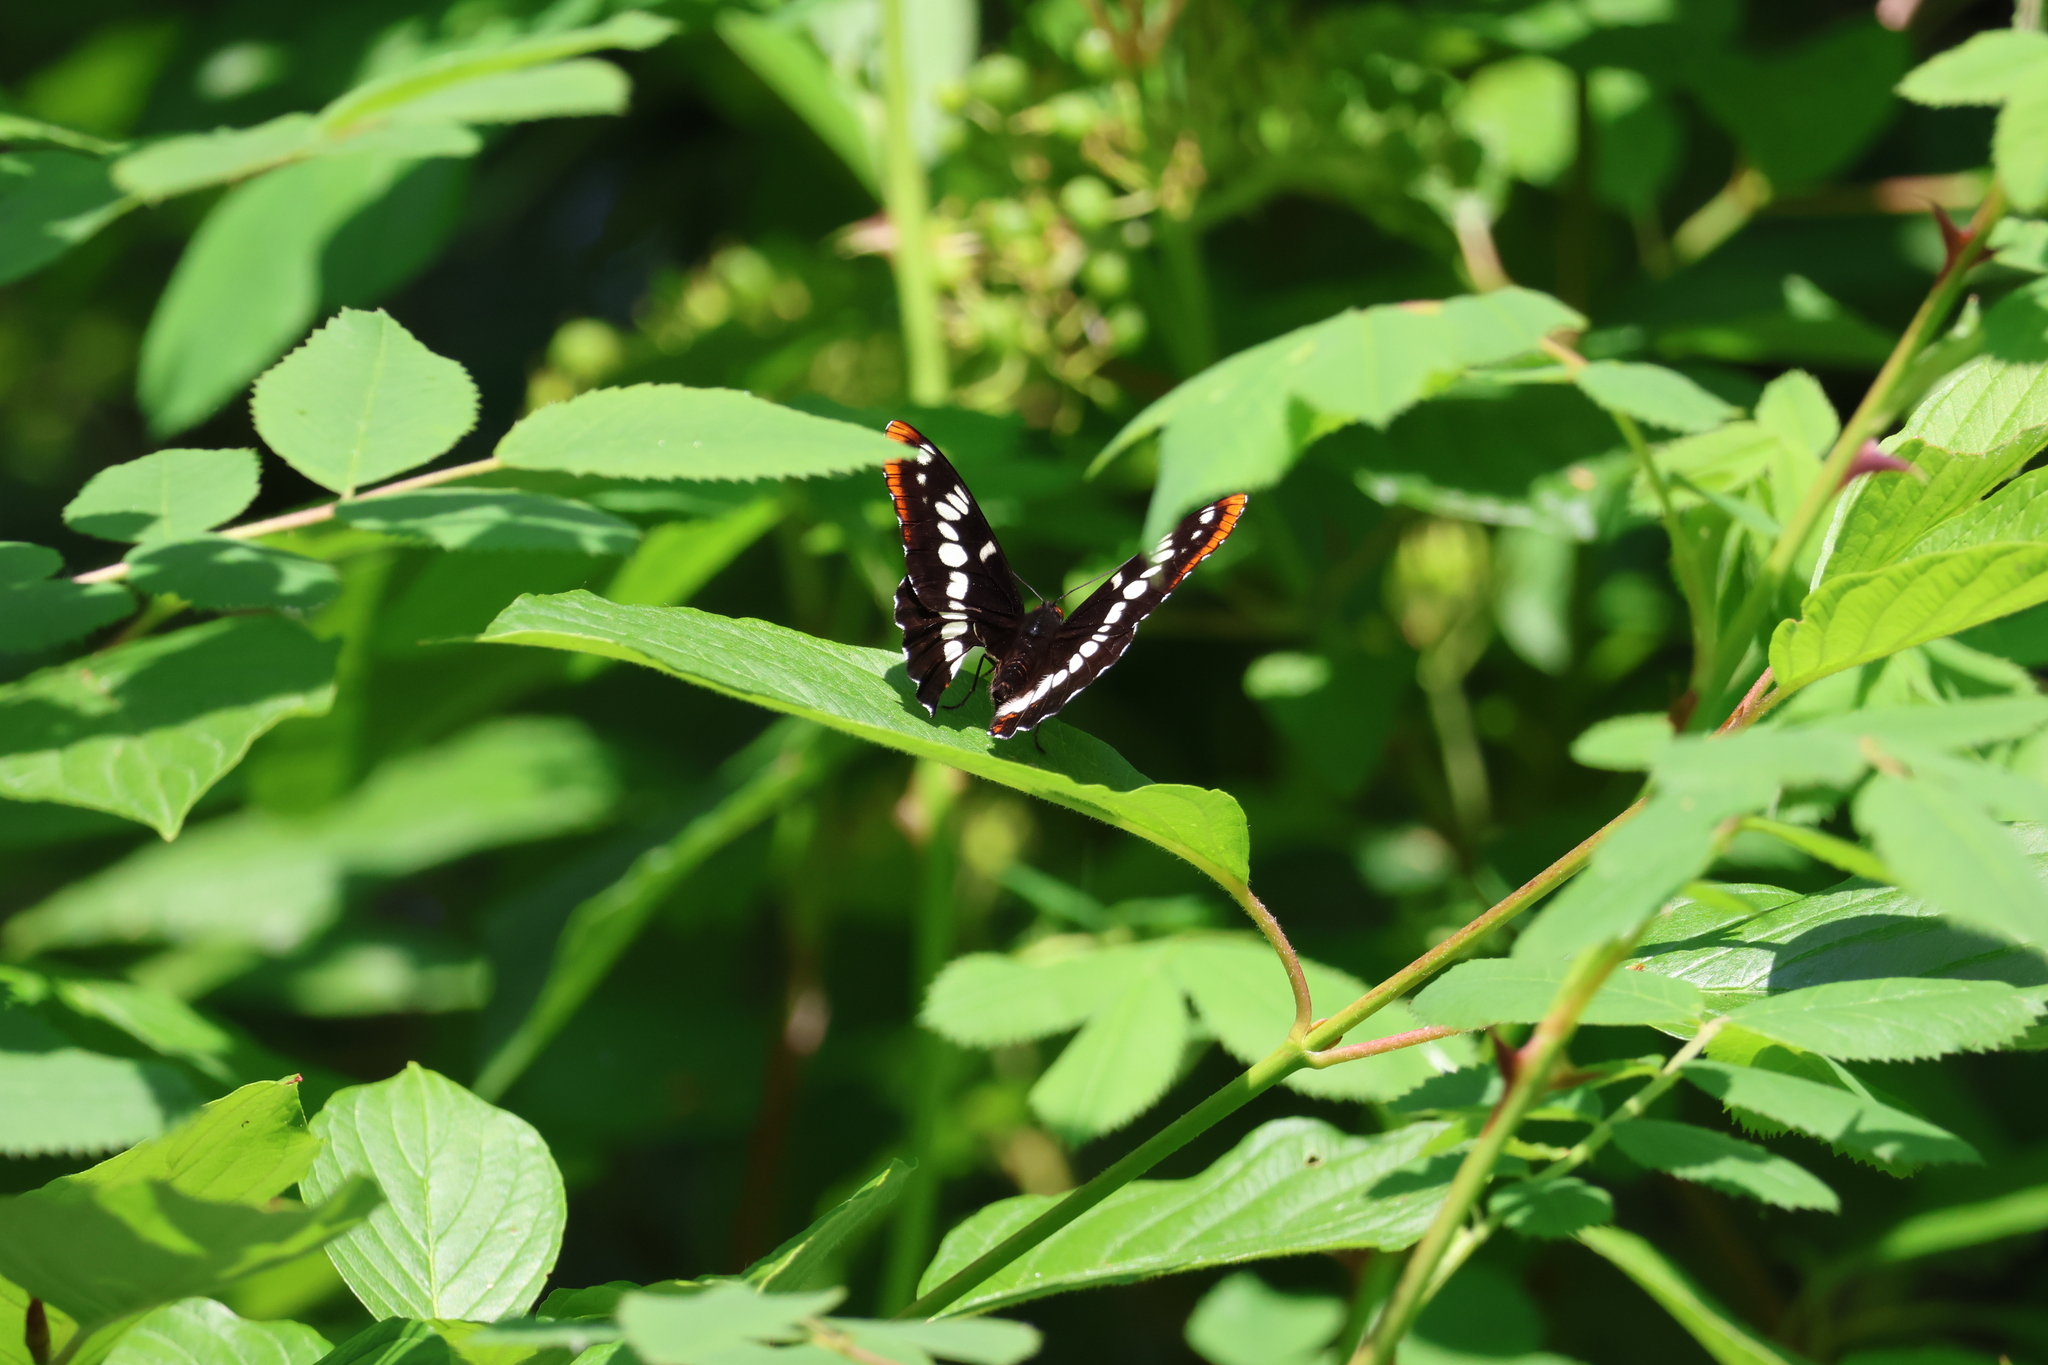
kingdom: Animalia
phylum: Arthropoda
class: Insecta
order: Lepidoptera
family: Nymphalidae
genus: Limenitis
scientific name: Limenitis lorquini
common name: Lorquin's admiral
